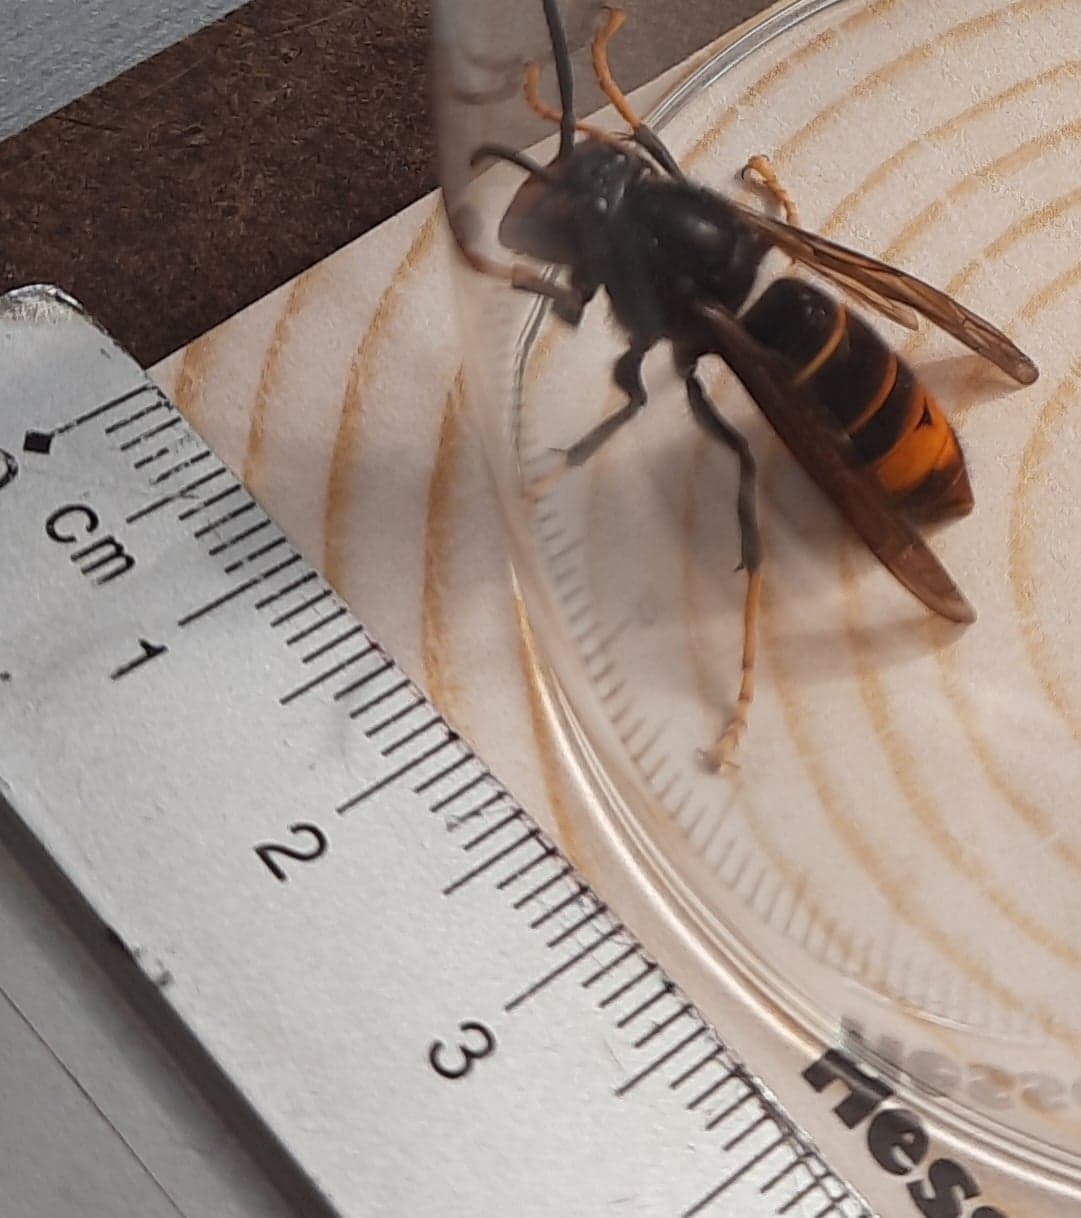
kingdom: Animalia
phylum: Arthropoda
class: Insecta
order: Hymenoptera
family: Vespidae
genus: Vespa
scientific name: Vespa velutina
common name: Asian hornet
